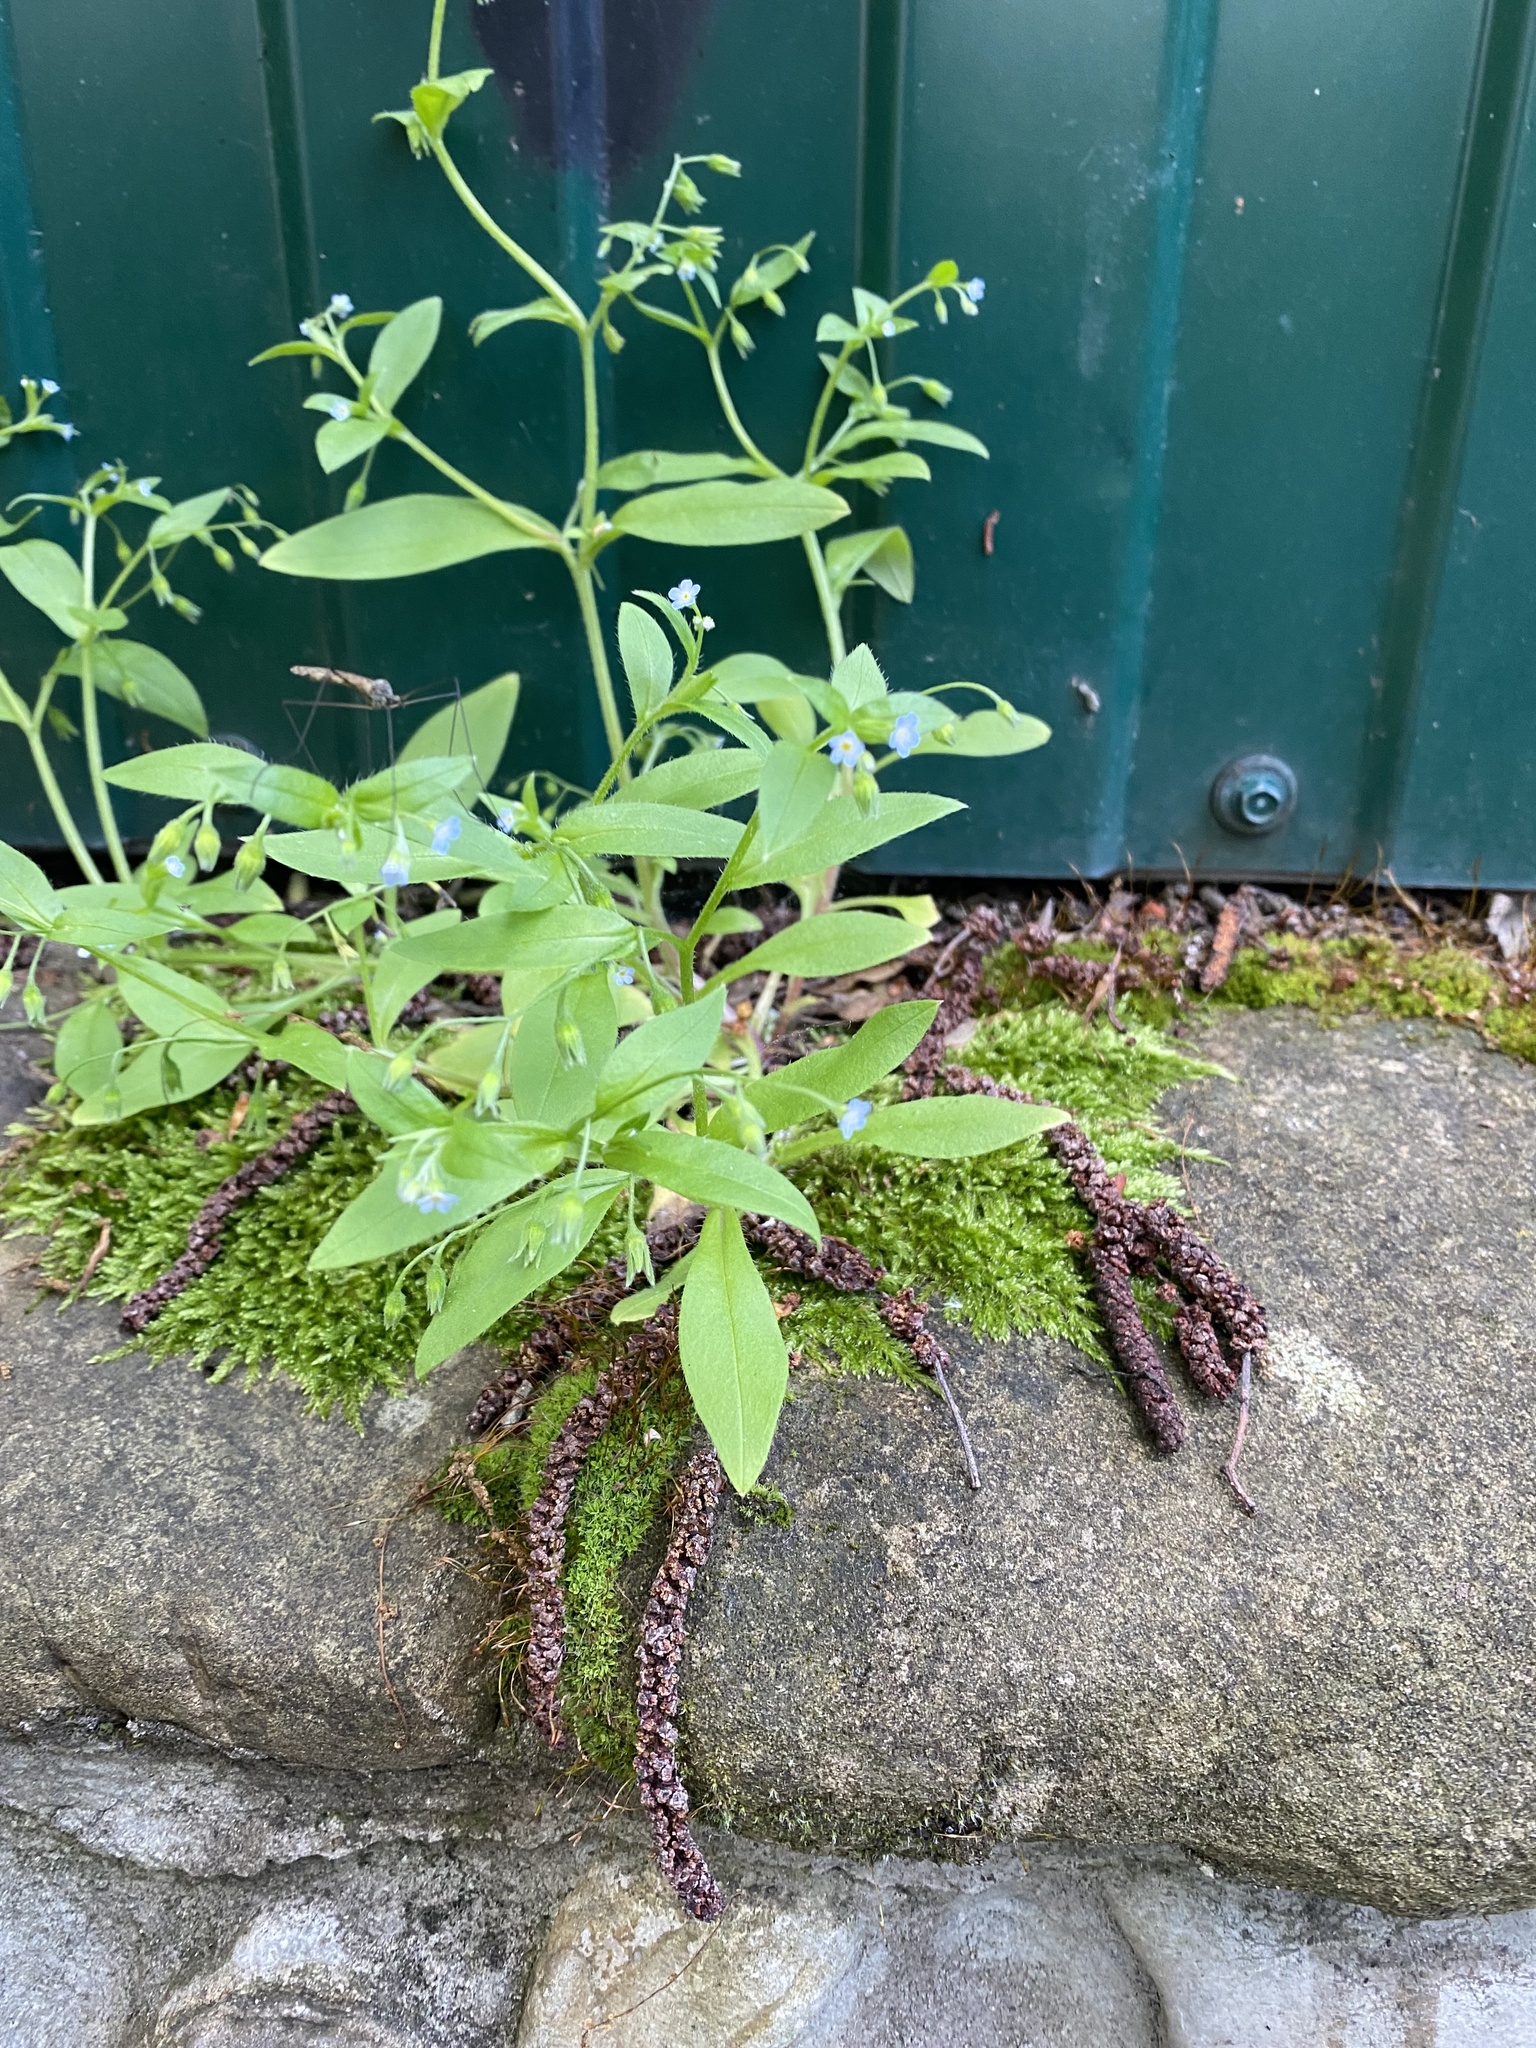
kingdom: Plantae
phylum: Tracheophyta
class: Magnoliopsida
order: Boraginales
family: Boraginaceae
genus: Myosotis
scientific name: Myosotis sparsiflora
